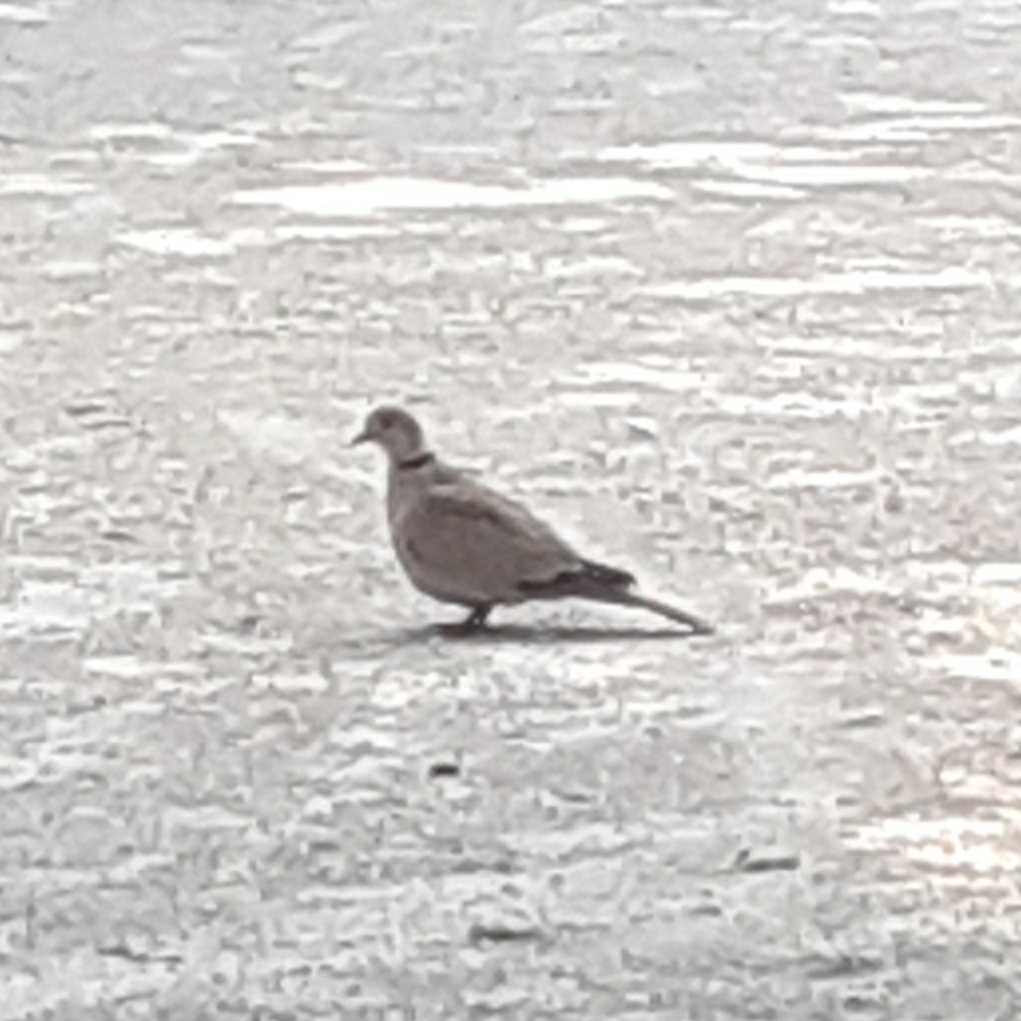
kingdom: Animalia
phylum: Chordata
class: Aves
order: Columbiformes
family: Columbidae
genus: Streptopelia
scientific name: Streptopelia decaocto
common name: Eurasian collared dove
